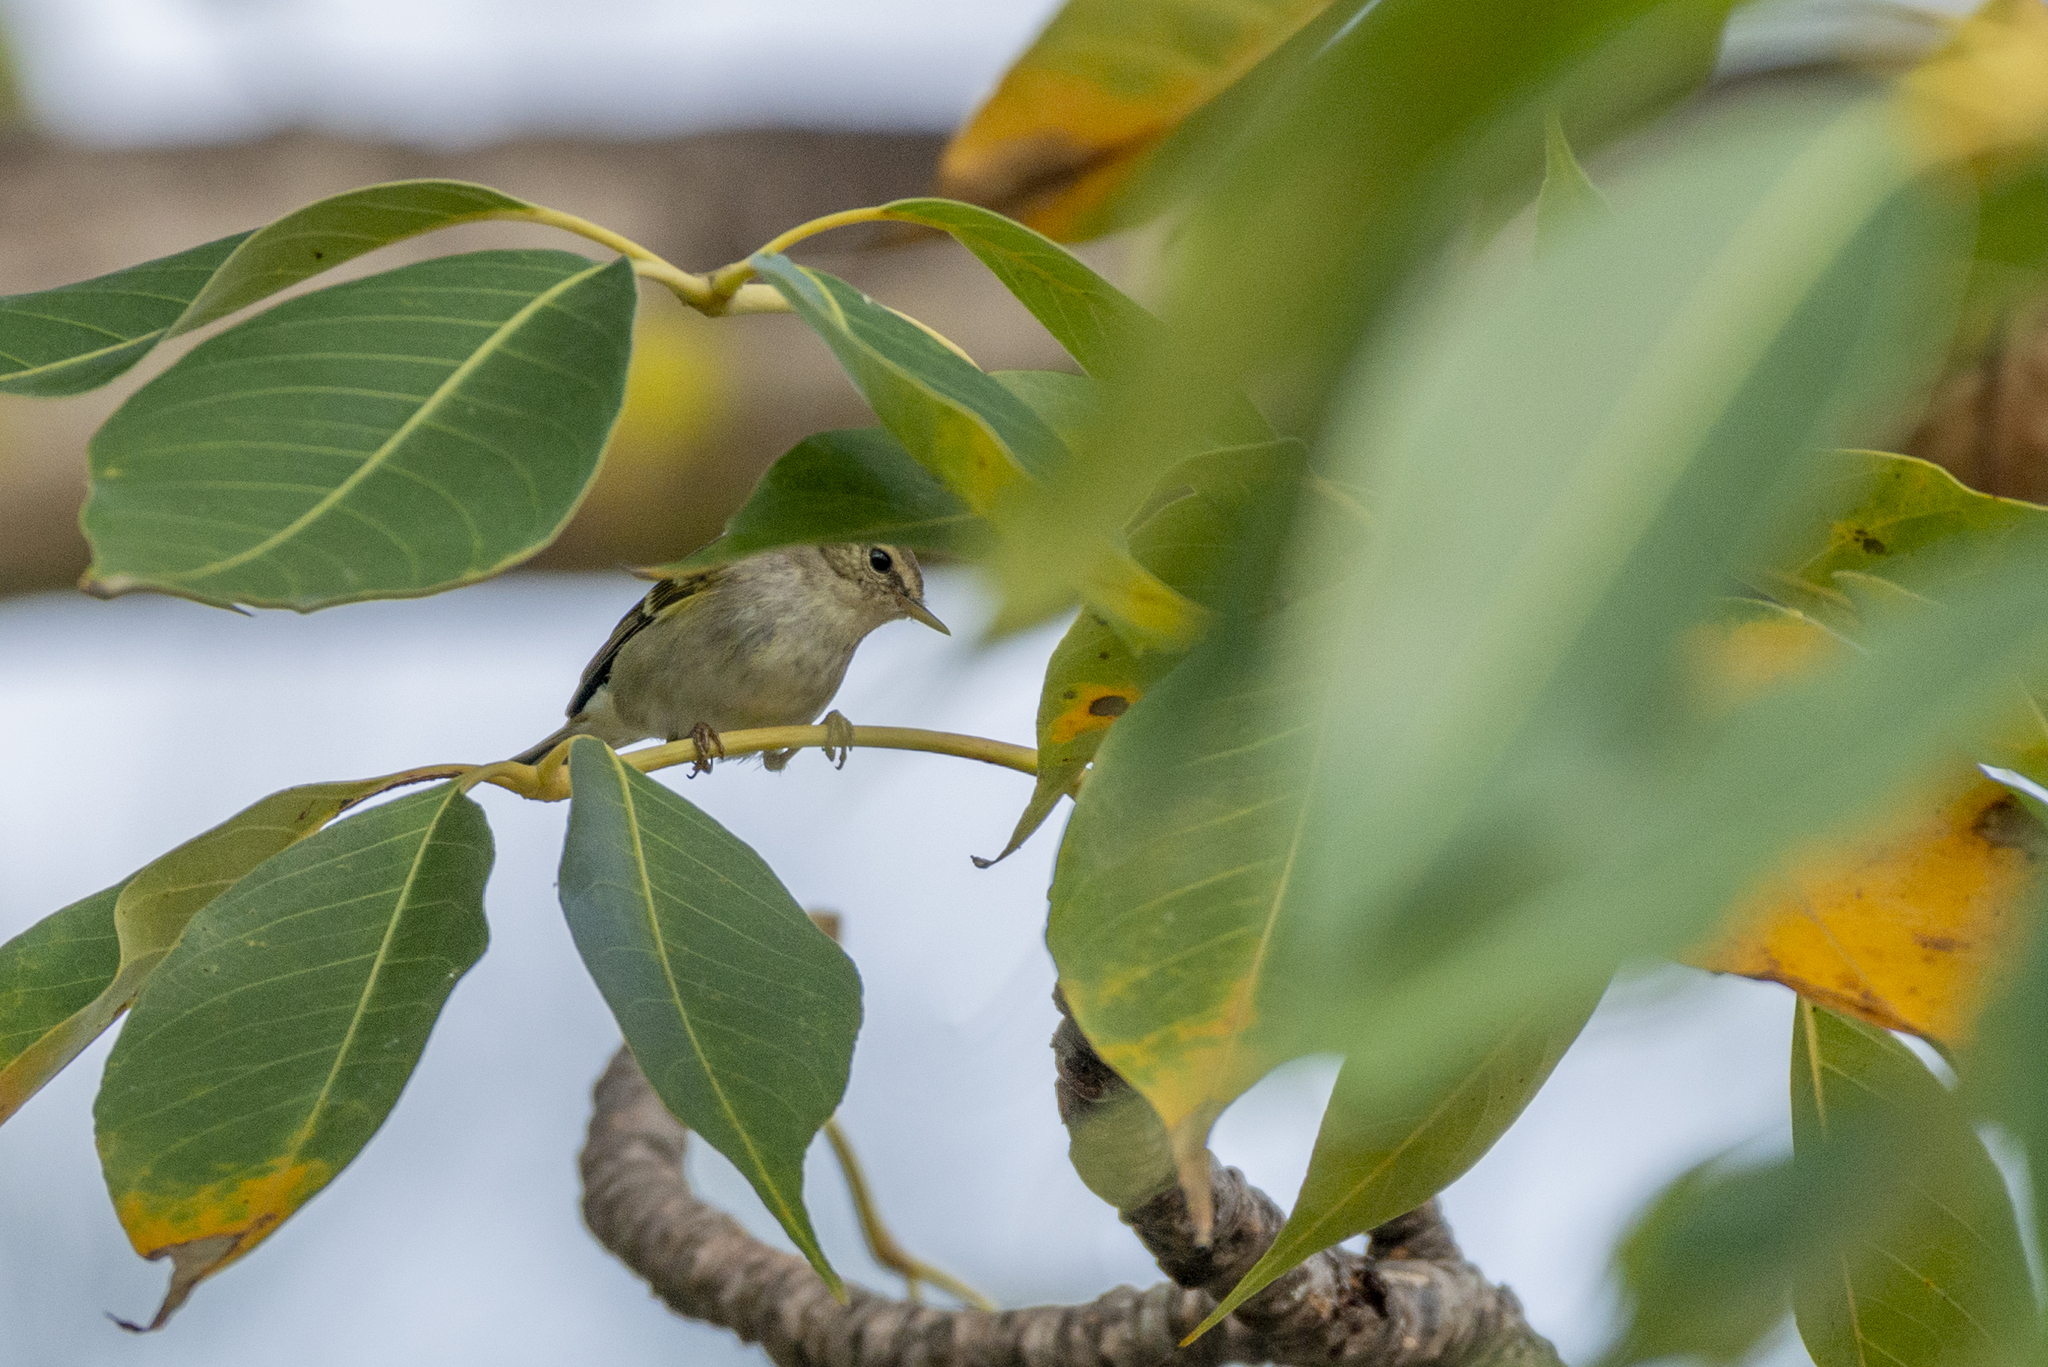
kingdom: Animalia
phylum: Chordata
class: Aves
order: Passeriformes
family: Phylloscopidae
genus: Phylloscopus
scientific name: Phylloscopus inornatus
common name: Yellow-browed warbler
